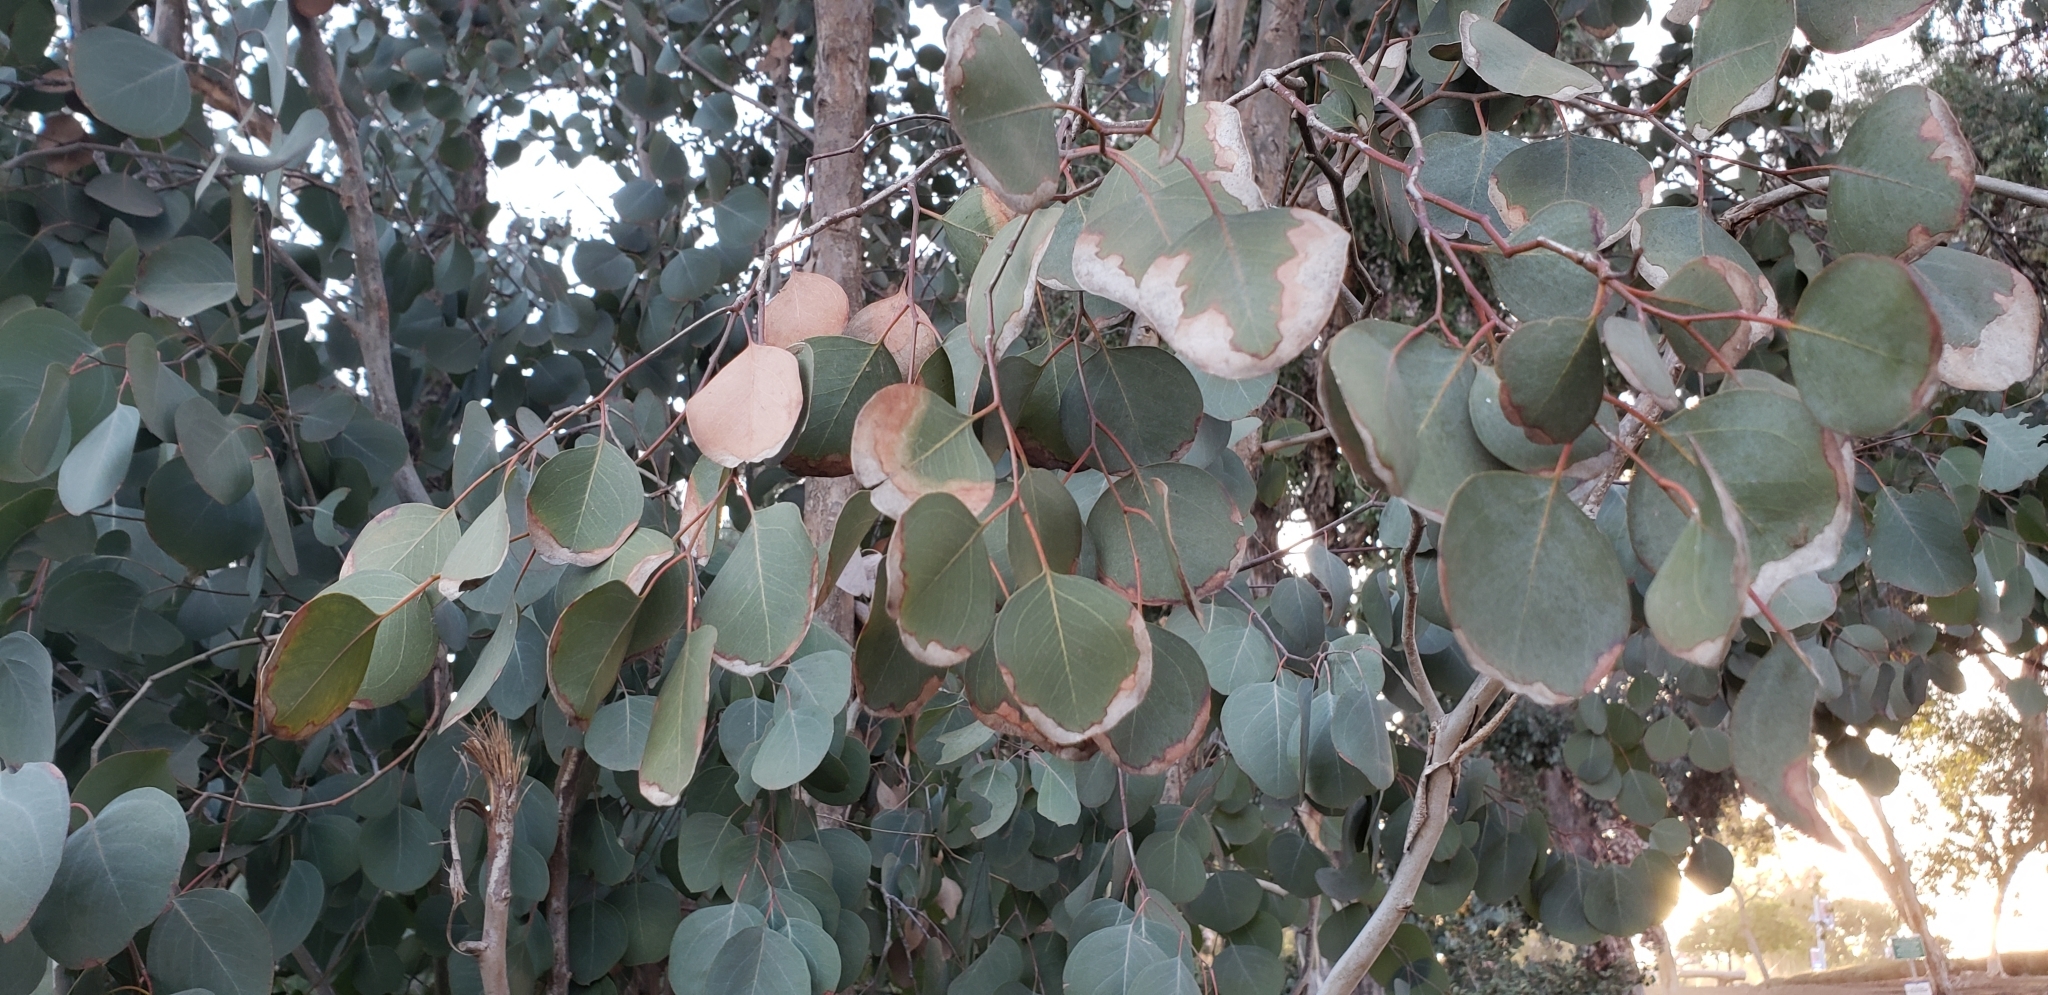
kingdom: Plantae
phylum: Tracheophyta
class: Magnoliopsida
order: Myrtales
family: Myrtaceae
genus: Eucalyptus
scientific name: Eucalyptus polyanthemos
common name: Red-box
